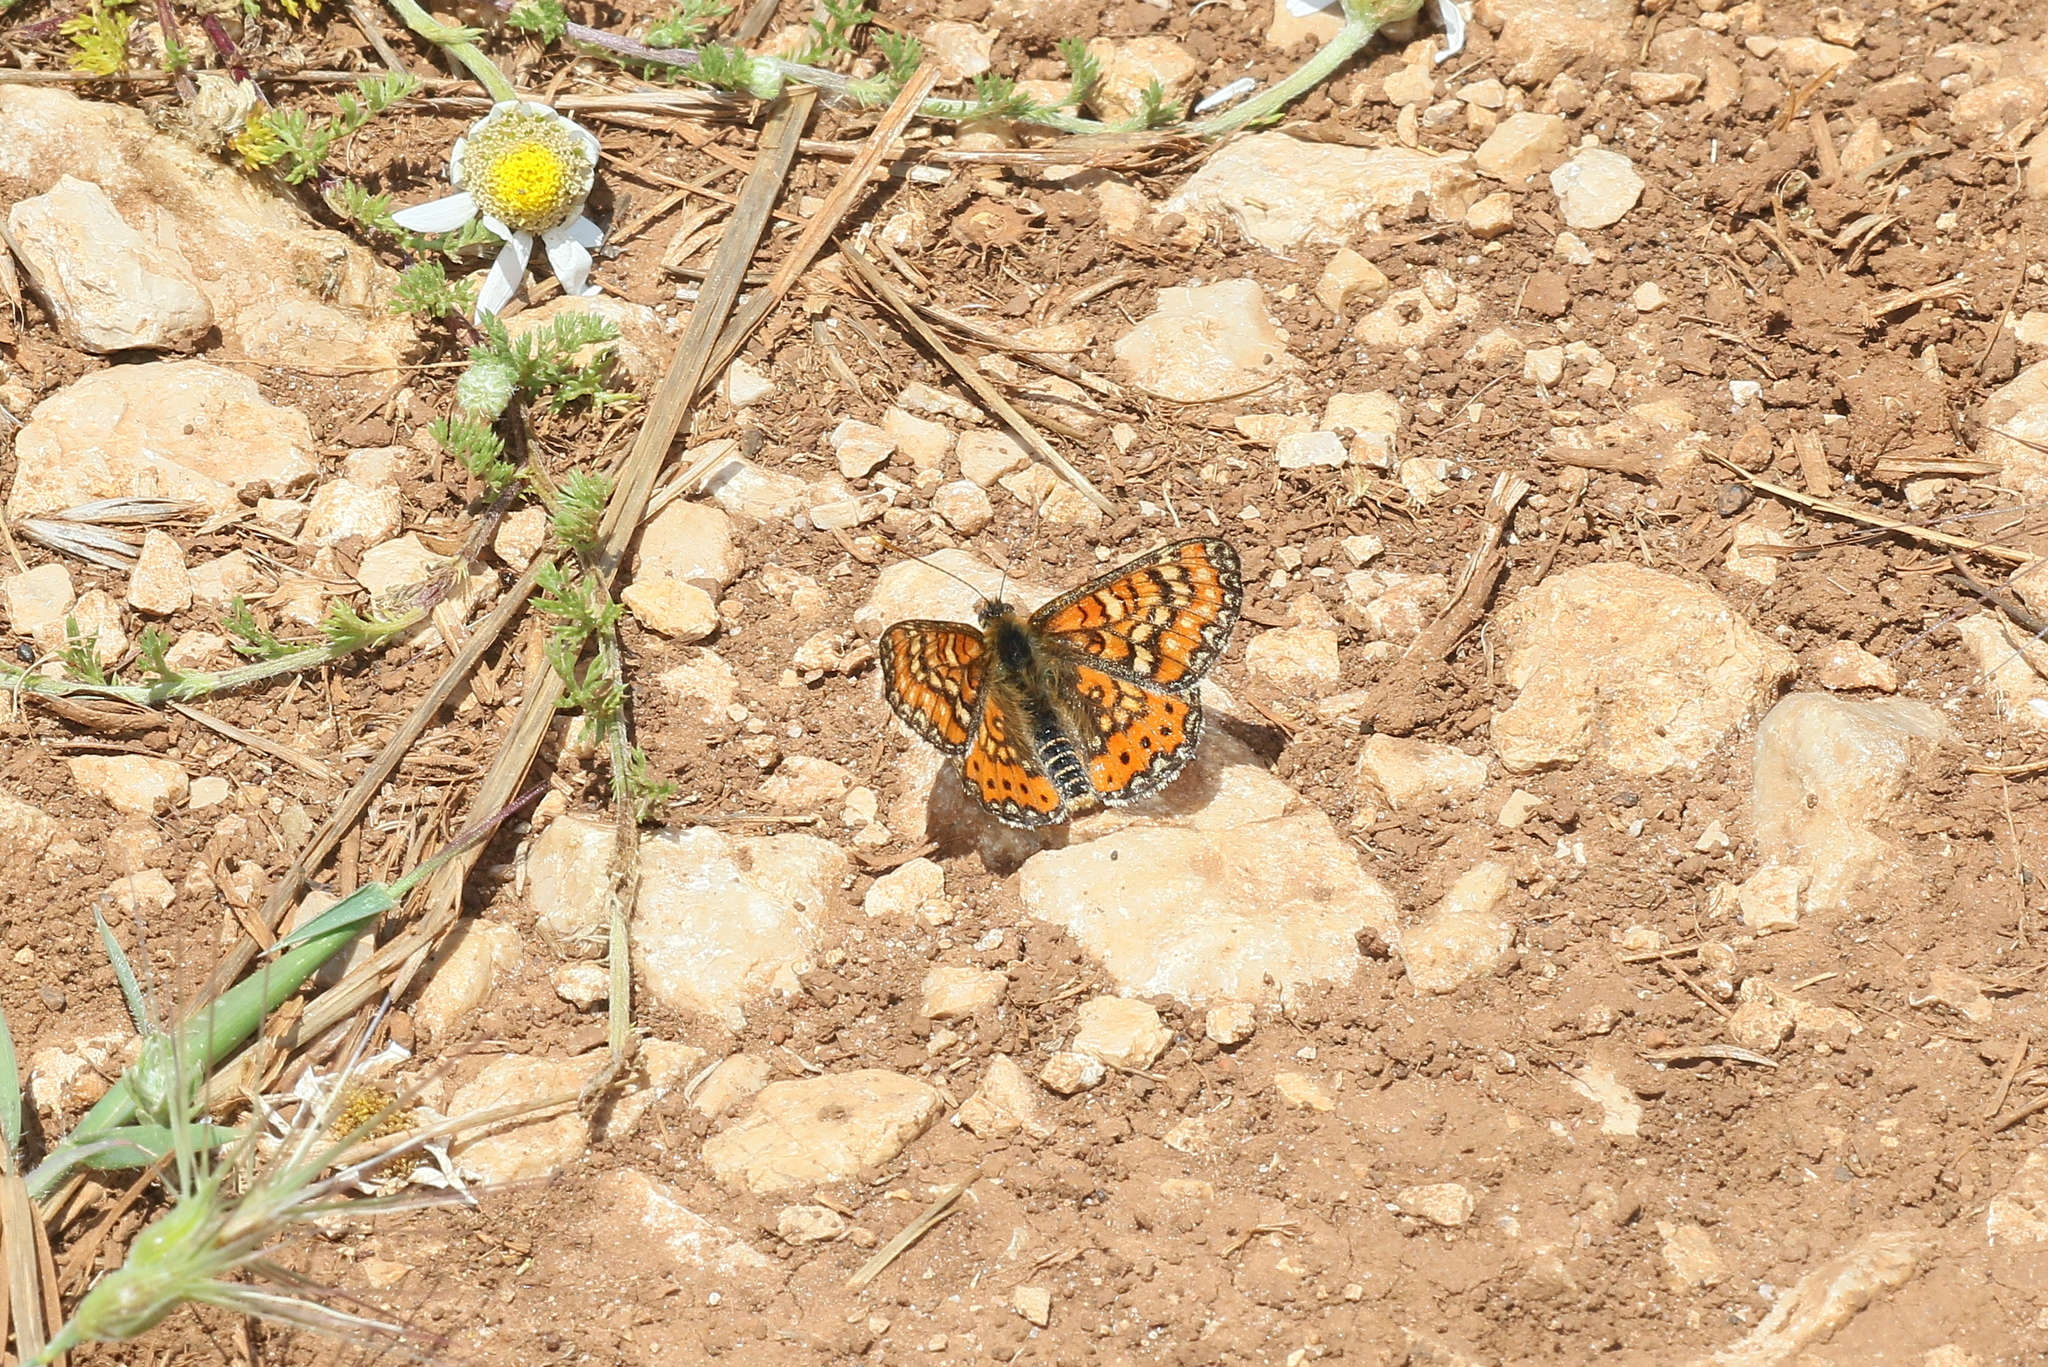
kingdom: Animalia
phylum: Arthropoda
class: Insecta
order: Lepidoptera
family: Nymphalidae
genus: Euphydryas
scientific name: Euphydryas desfontainii
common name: Spanish fritillary
